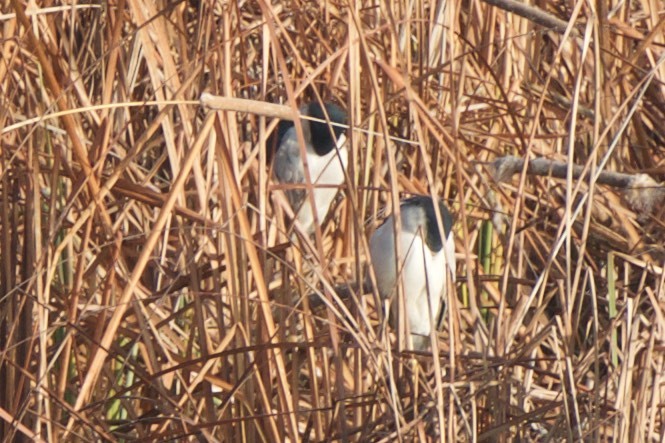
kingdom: Animalia
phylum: Chordata
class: Aves
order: Pelecaniformes
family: Ardeidae
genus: Nycticorax
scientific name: Nycticorax nycticorax
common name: Black-crowned night heron
